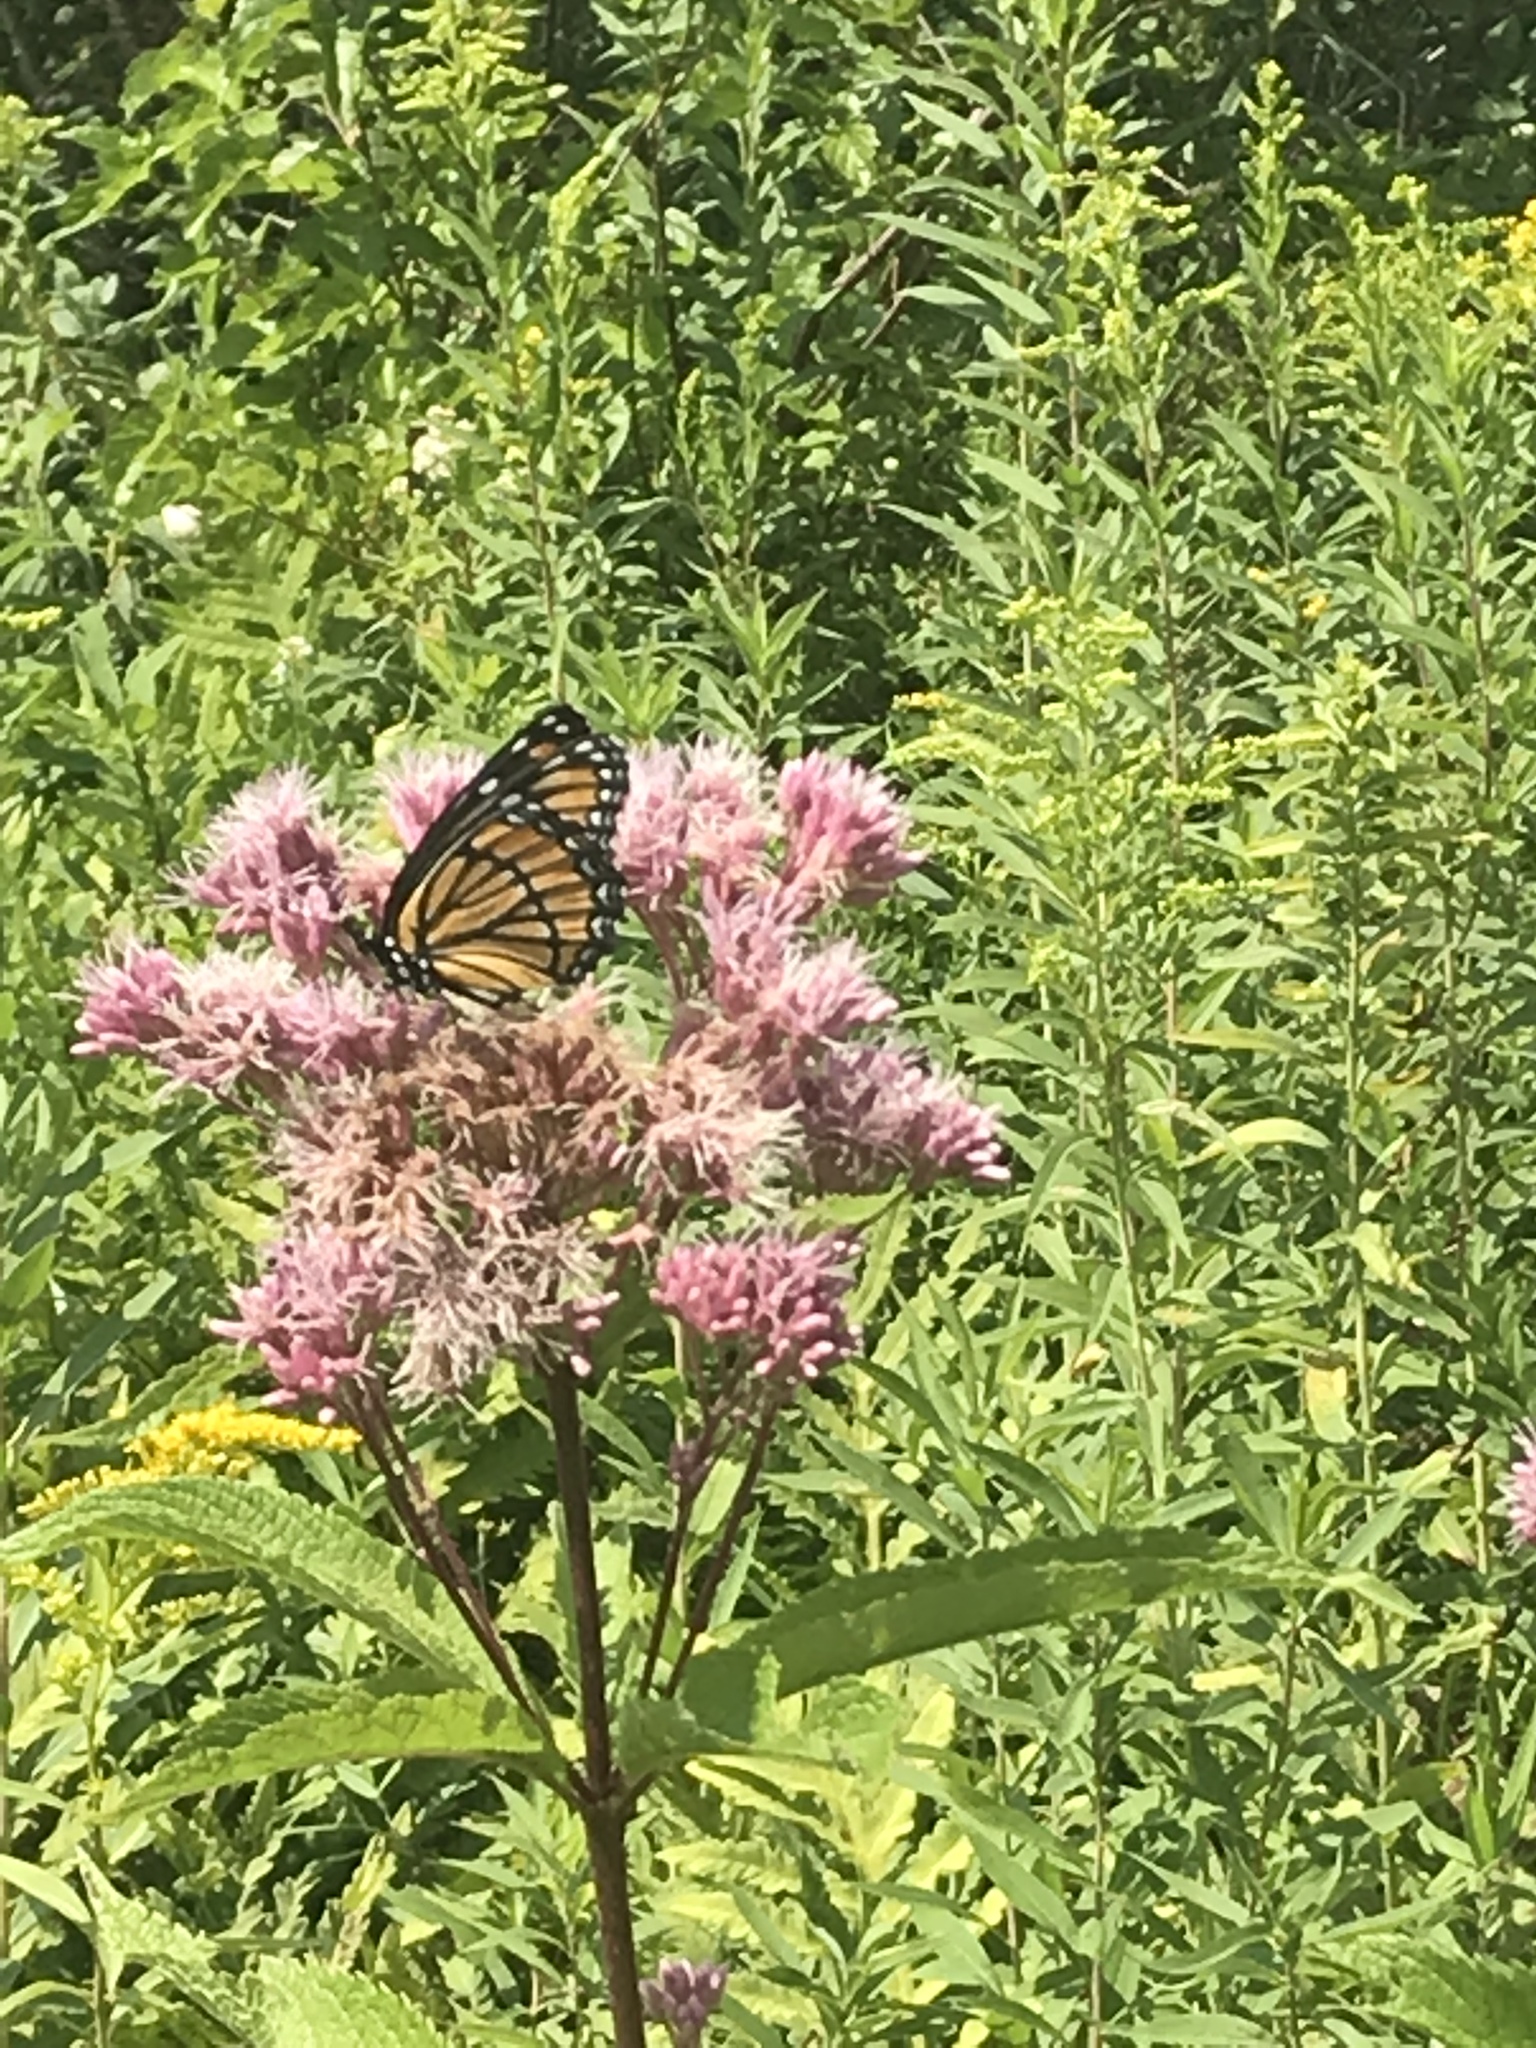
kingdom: Animalia
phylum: Arthropoda
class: Insecta
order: Lepidoptera
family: Nymphalidae
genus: Limenitis
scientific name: Limenitis archippus
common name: Viceroy
